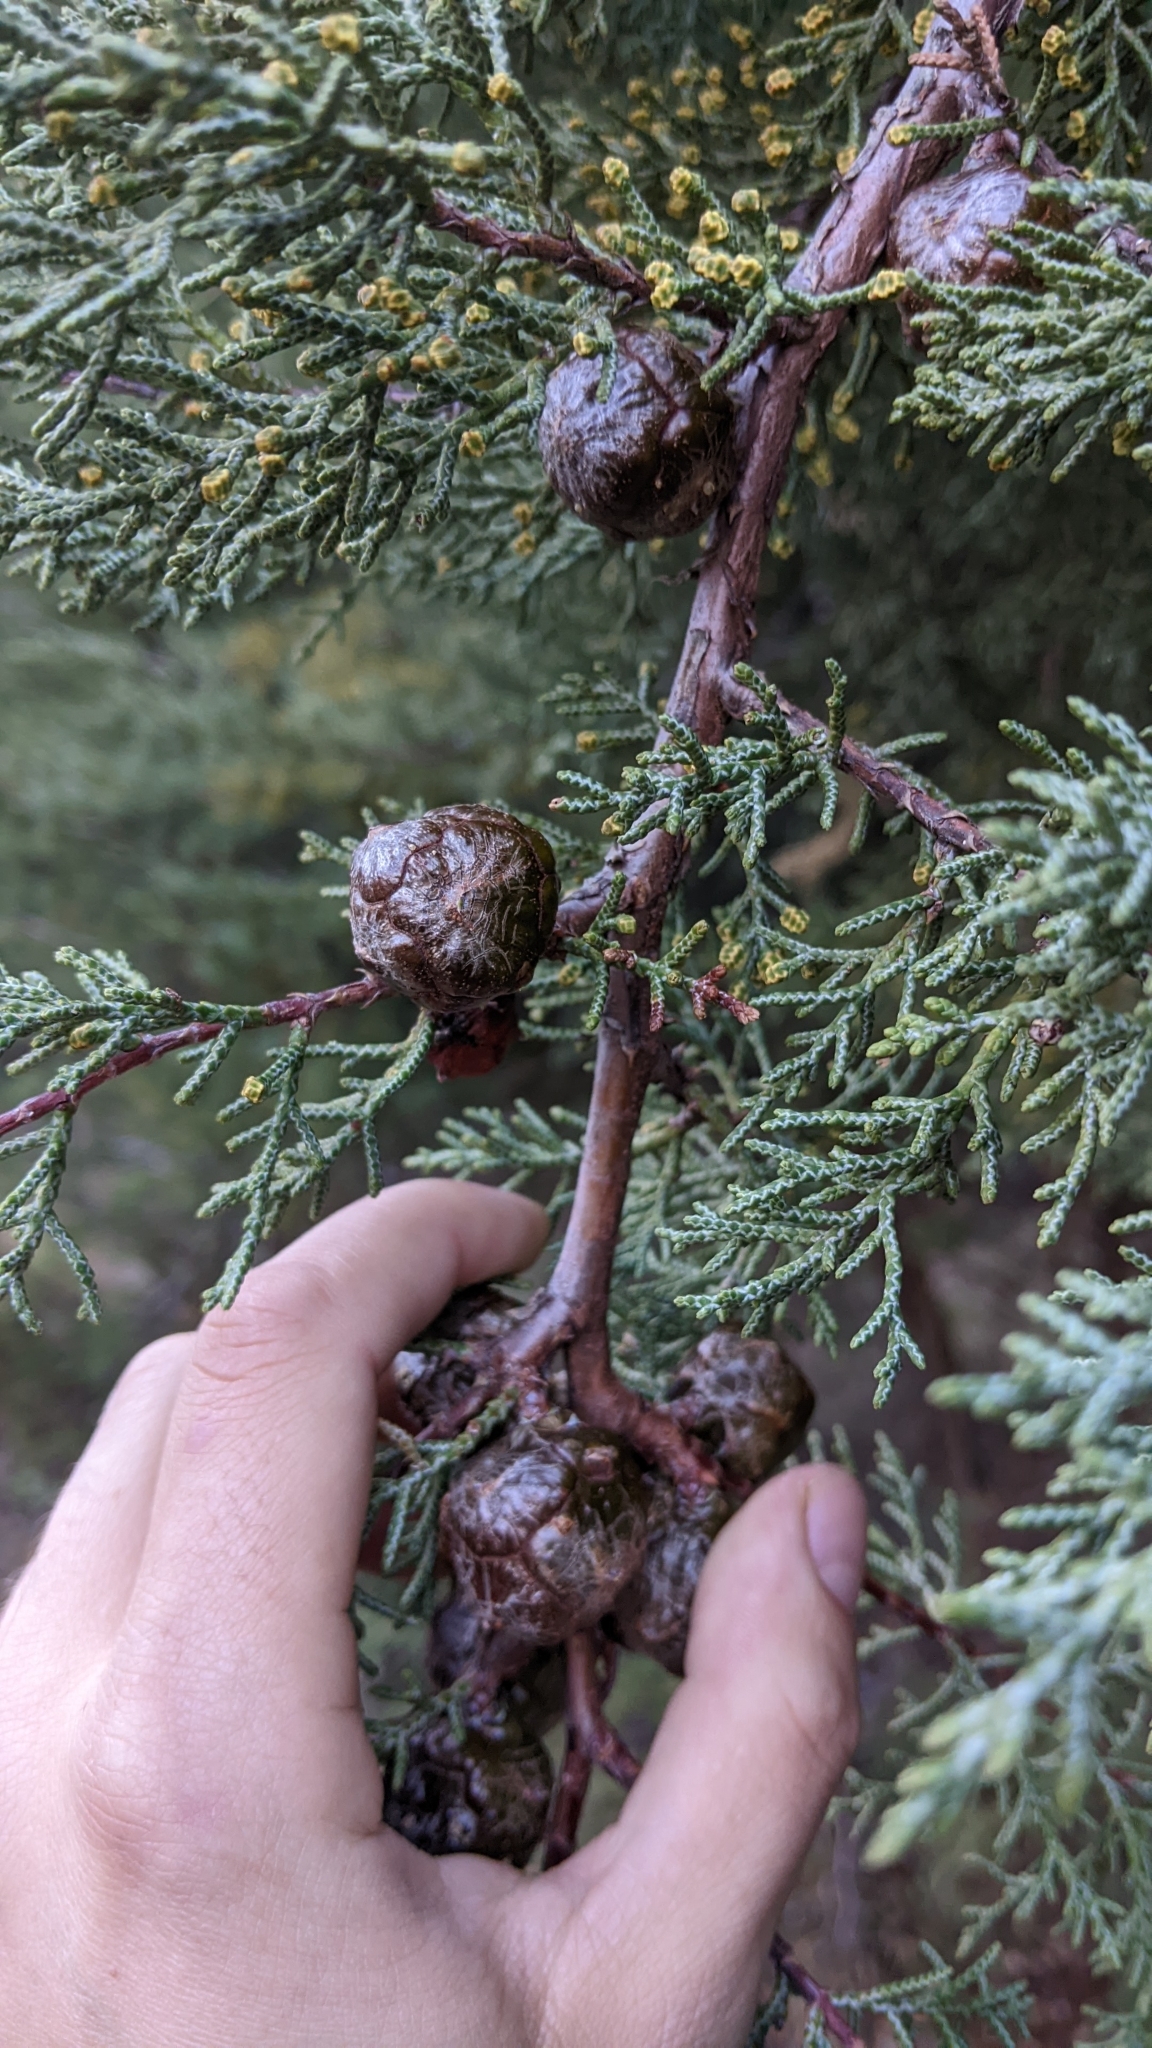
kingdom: Plantae
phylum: Tracheophyta
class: Pinopsida
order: Pinales
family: Cupressaceae
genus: Cupressus
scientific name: Cupressus sargentii
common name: Sargent cypress
